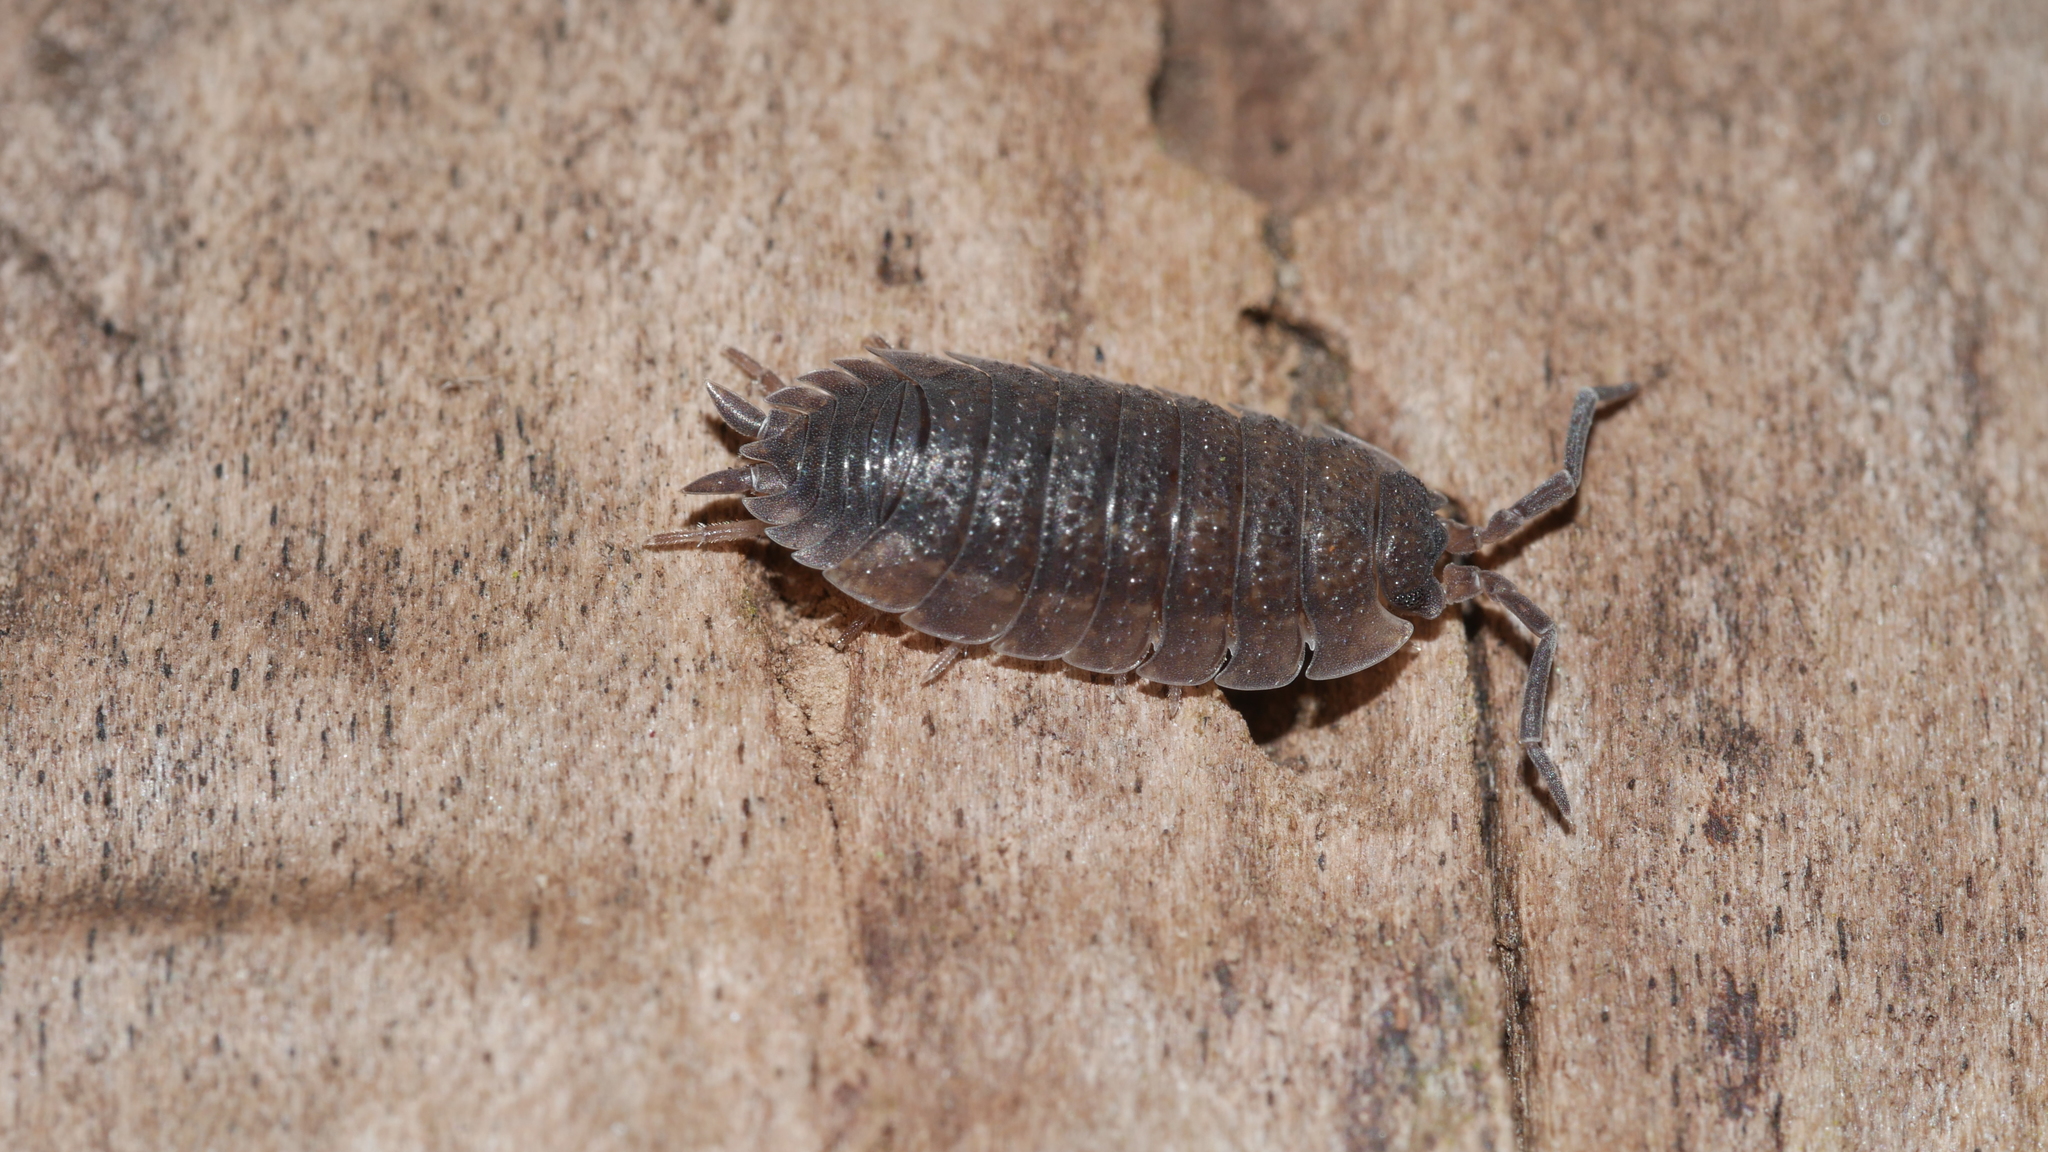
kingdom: Animalia
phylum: Arthropoda
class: Malacostraca
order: Isopoda
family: Porcellionidae
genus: Porcellio
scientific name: Porcellio scaber
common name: Common rough woodlouse
